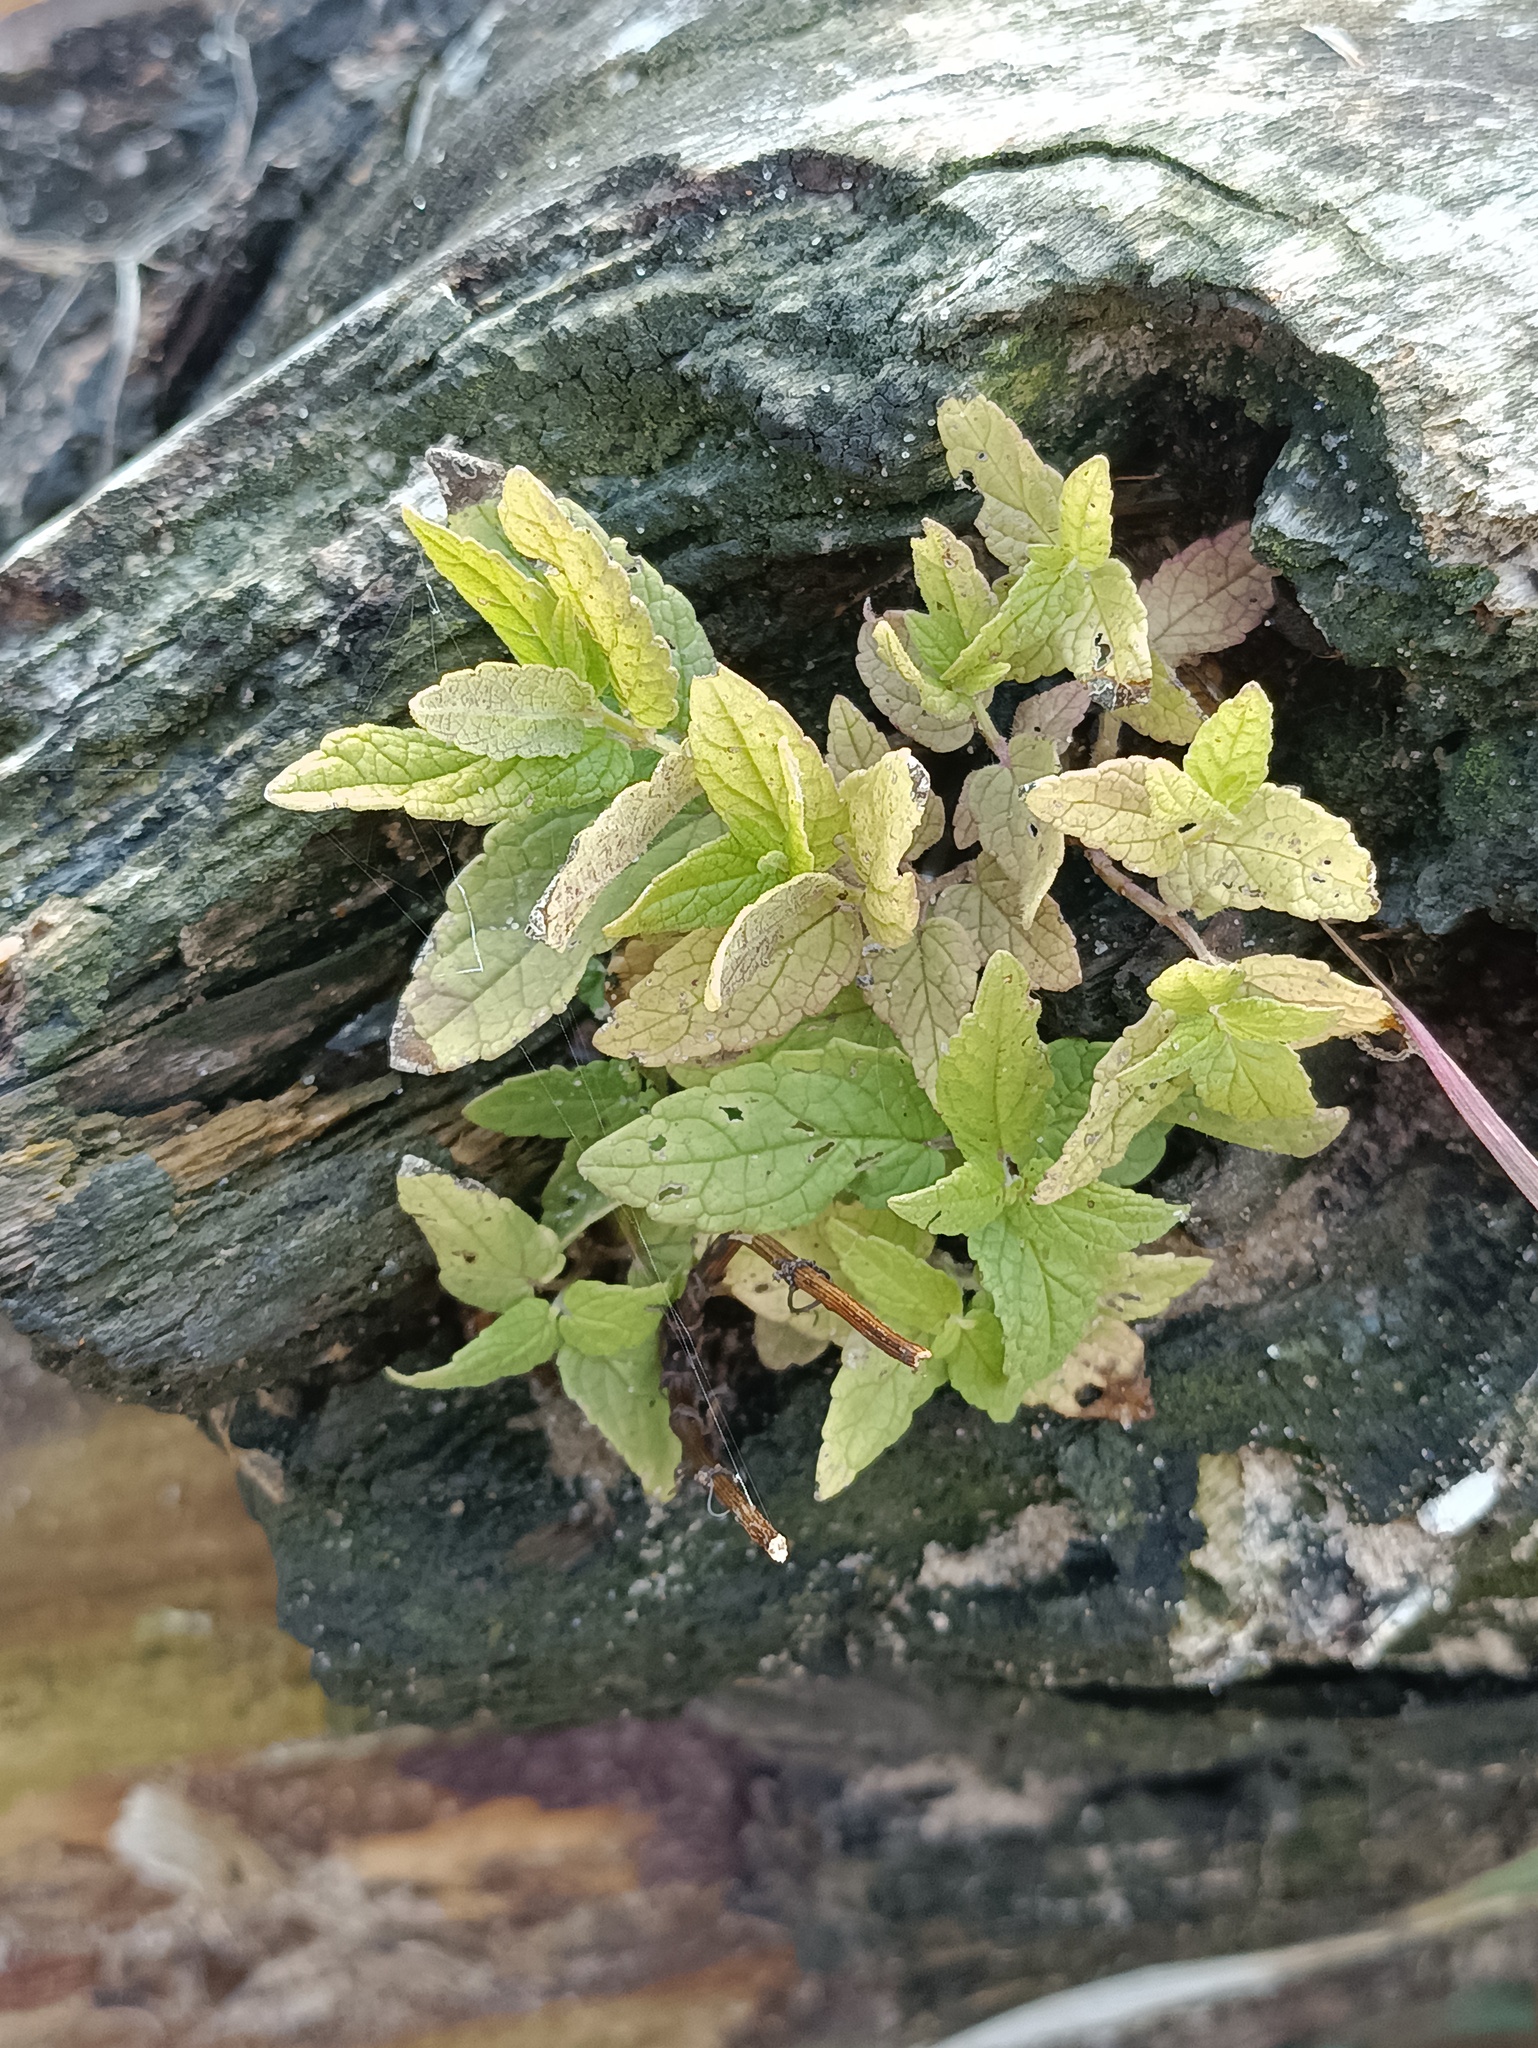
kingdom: Plantae
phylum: Tracheophyta
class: Magnoliopsida
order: Lamiales
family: Lamiaceae
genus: Scutellaria
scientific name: Scutellaria galericulata
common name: Skullcap
